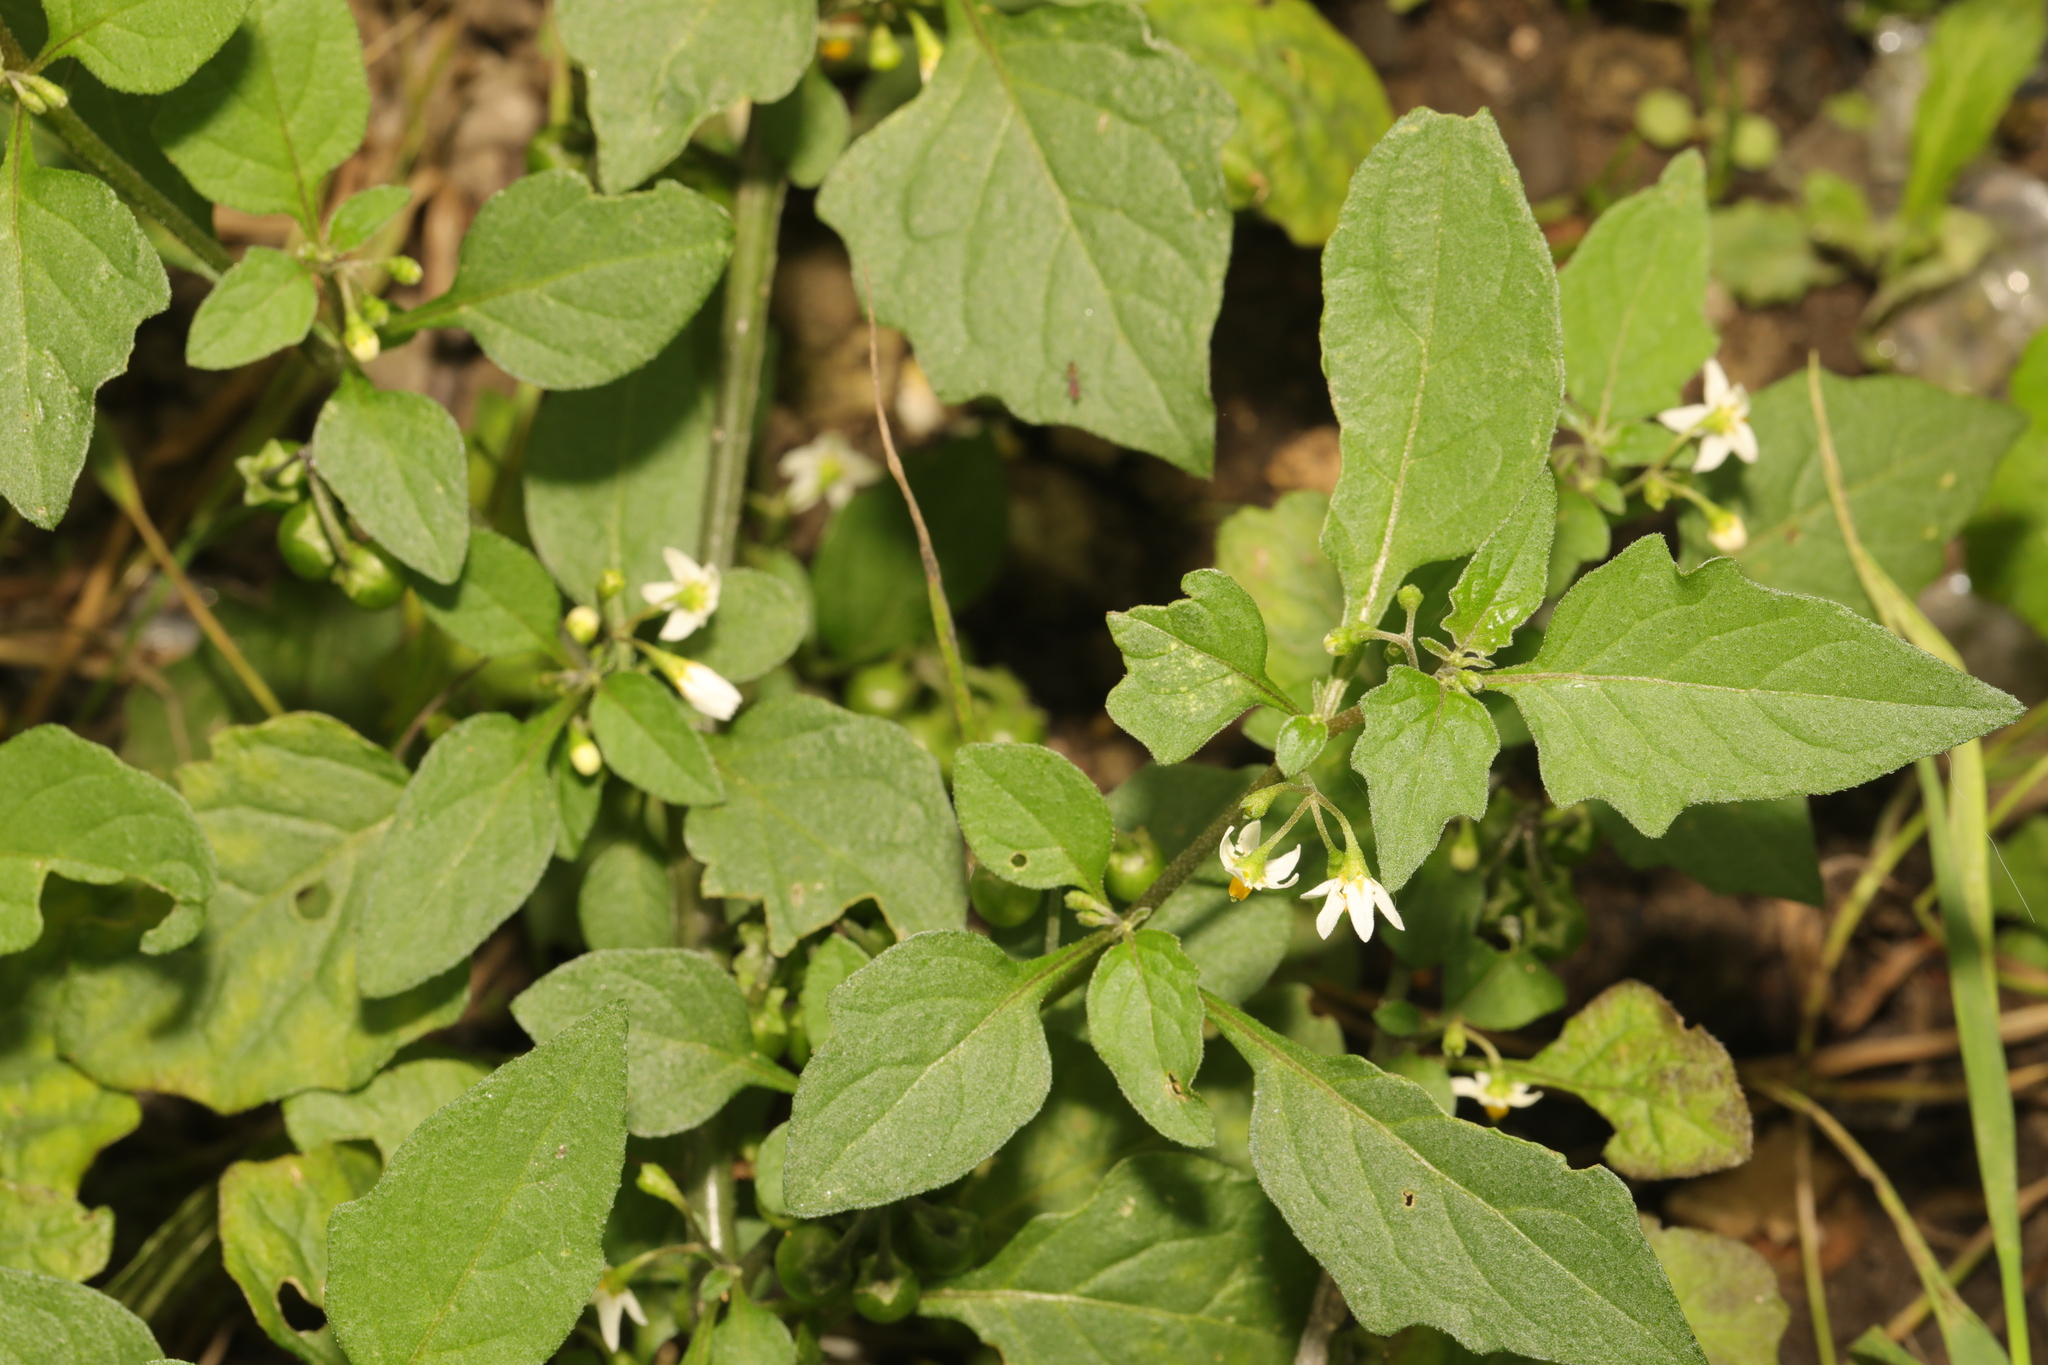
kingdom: Plantae
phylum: Tracheophyta
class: Magnoliopsida
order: Solanales
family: Solanaceae
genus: Solanum
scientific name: Solanum nigrum
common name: Black nightshade
